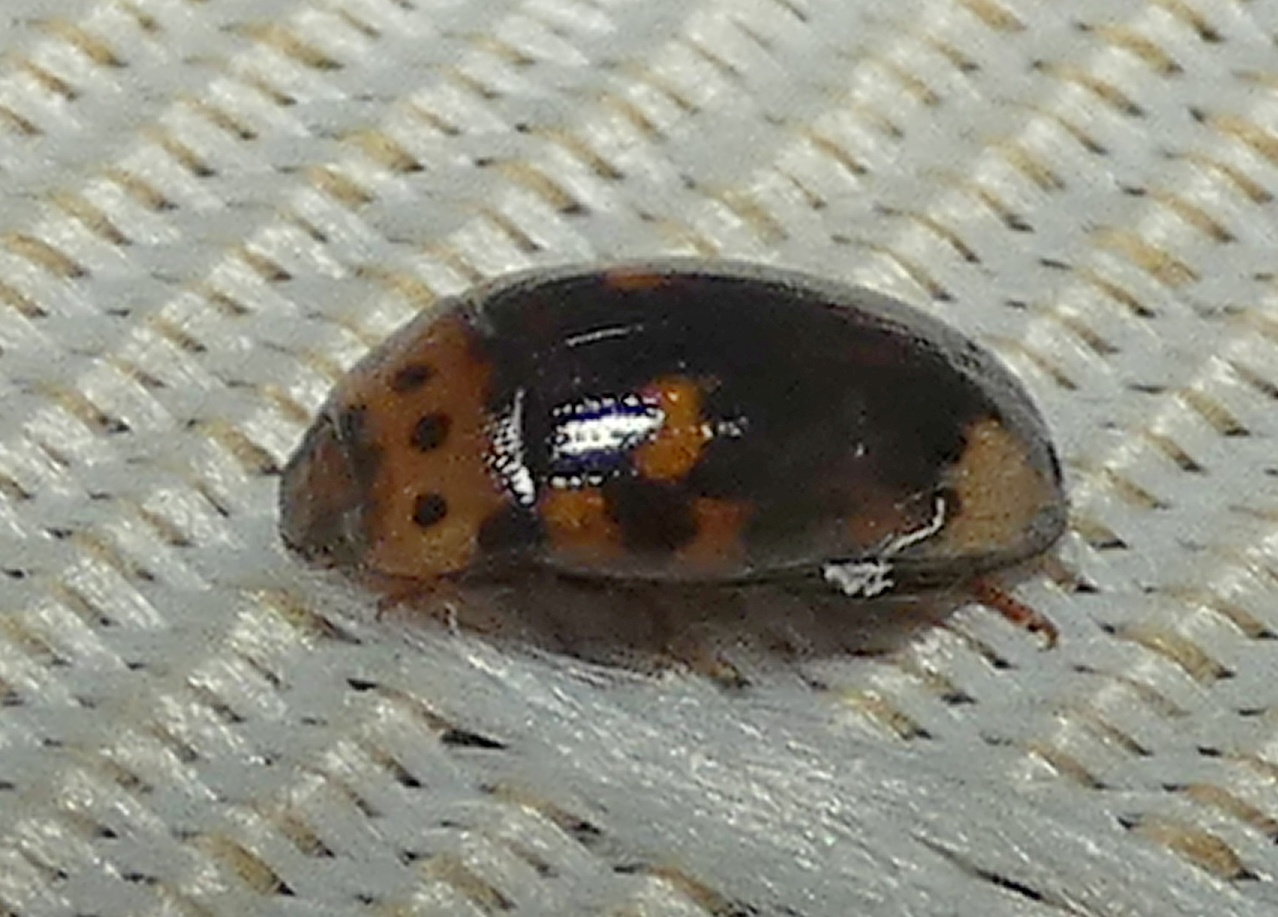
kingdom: Animalia
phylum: Arthropoda
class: Insecta
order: Coleoptera
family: Erotylidae
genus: Ischyrus
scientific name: Ischyrus
